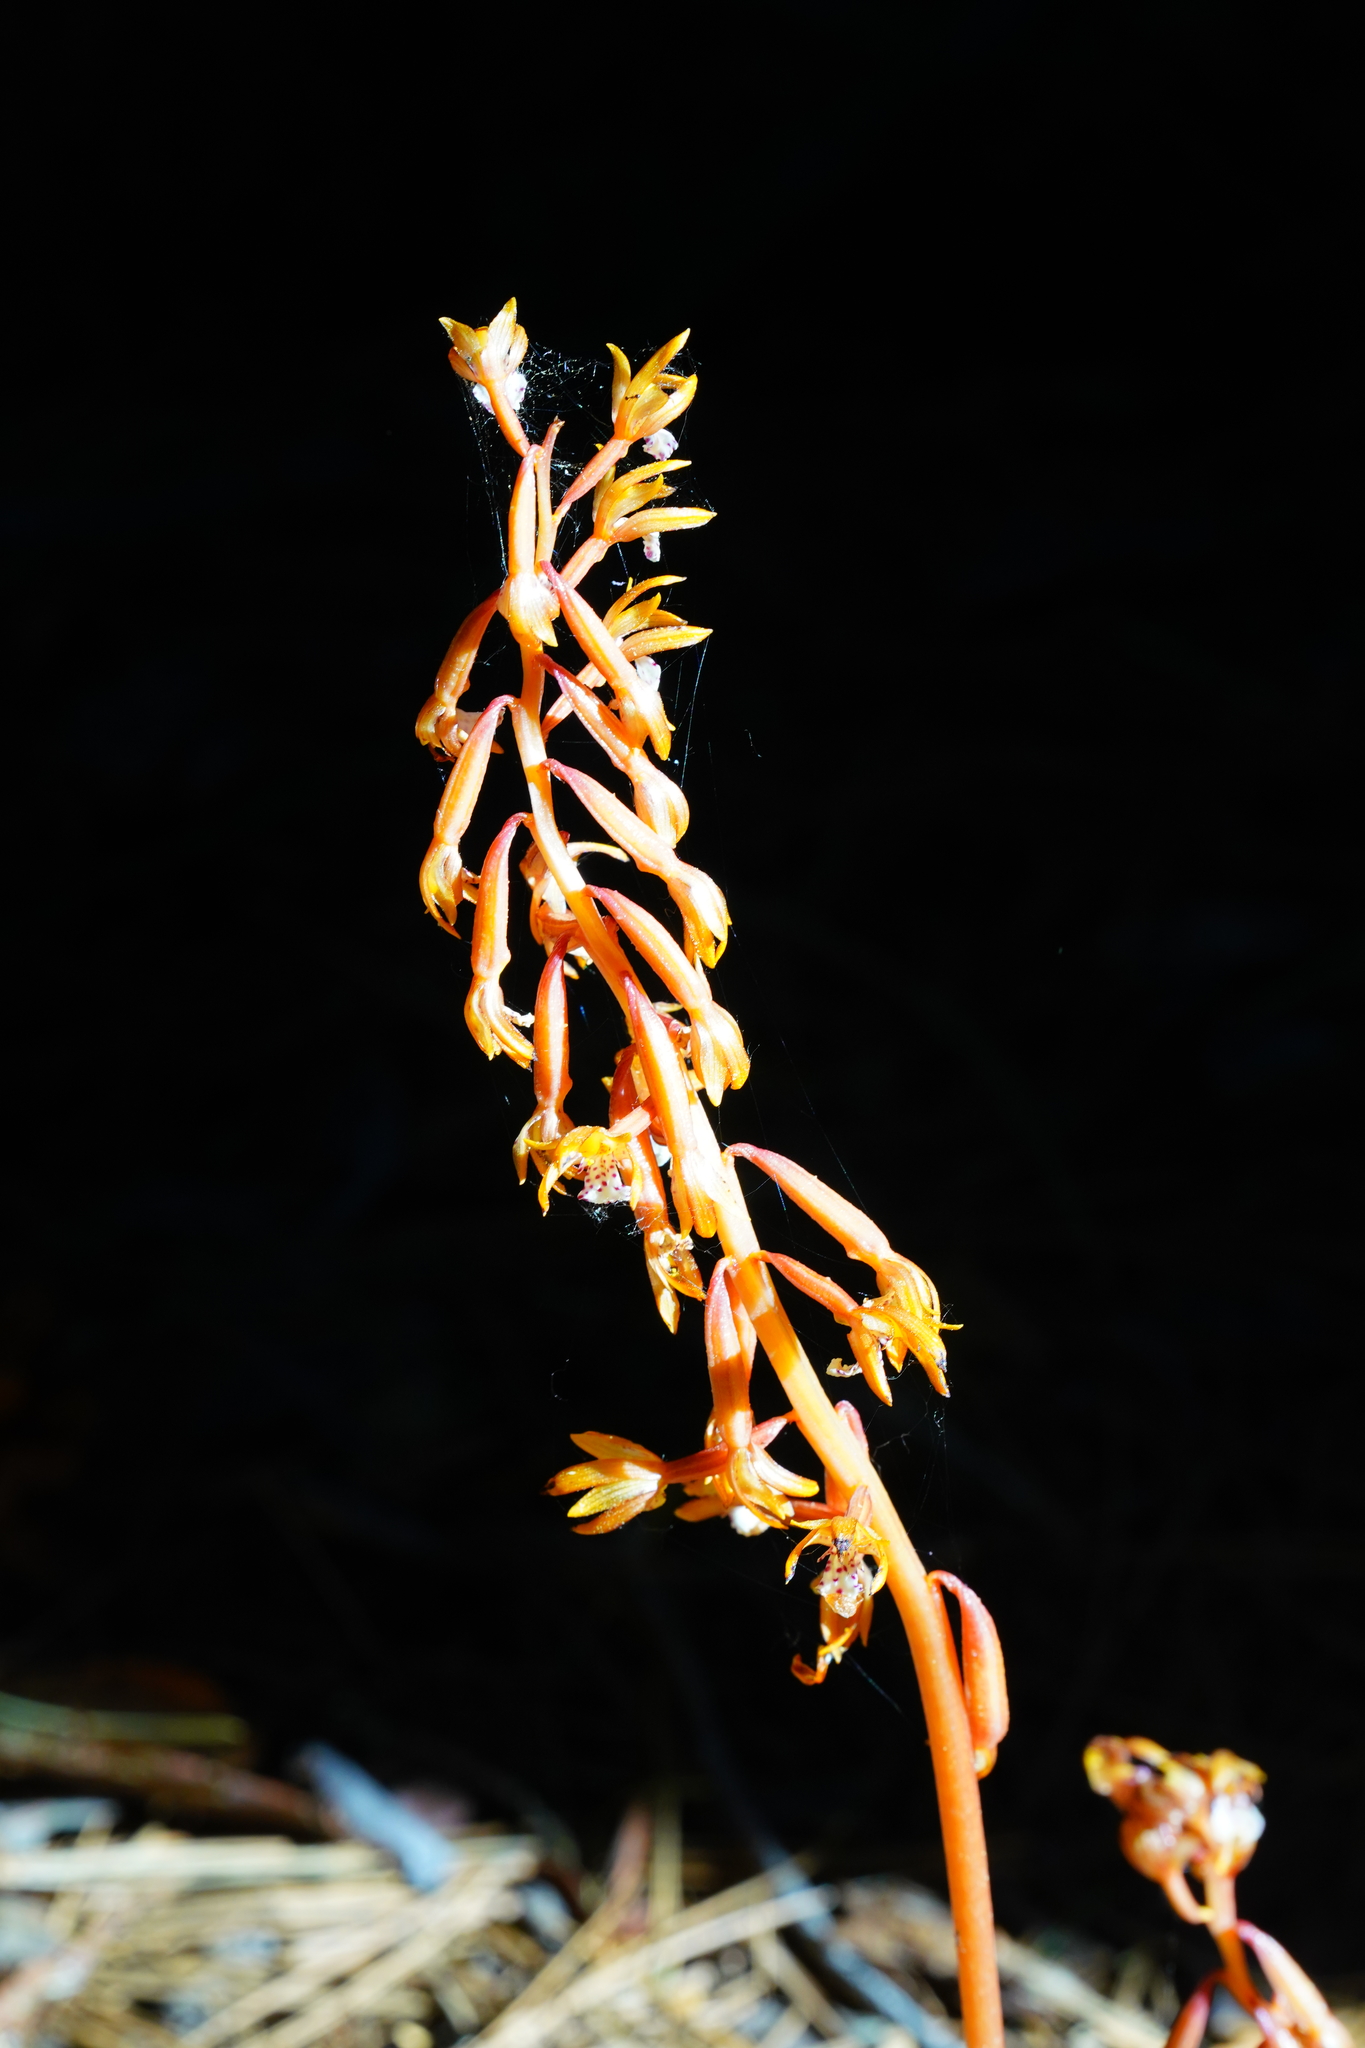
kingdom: Plantae
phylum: Tracheophyta
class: Liliopsida
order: Asparagales
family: Orchidaceae
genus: Corallorhiza
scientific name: Corallorhiza maculata
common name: Spotted coralroot
